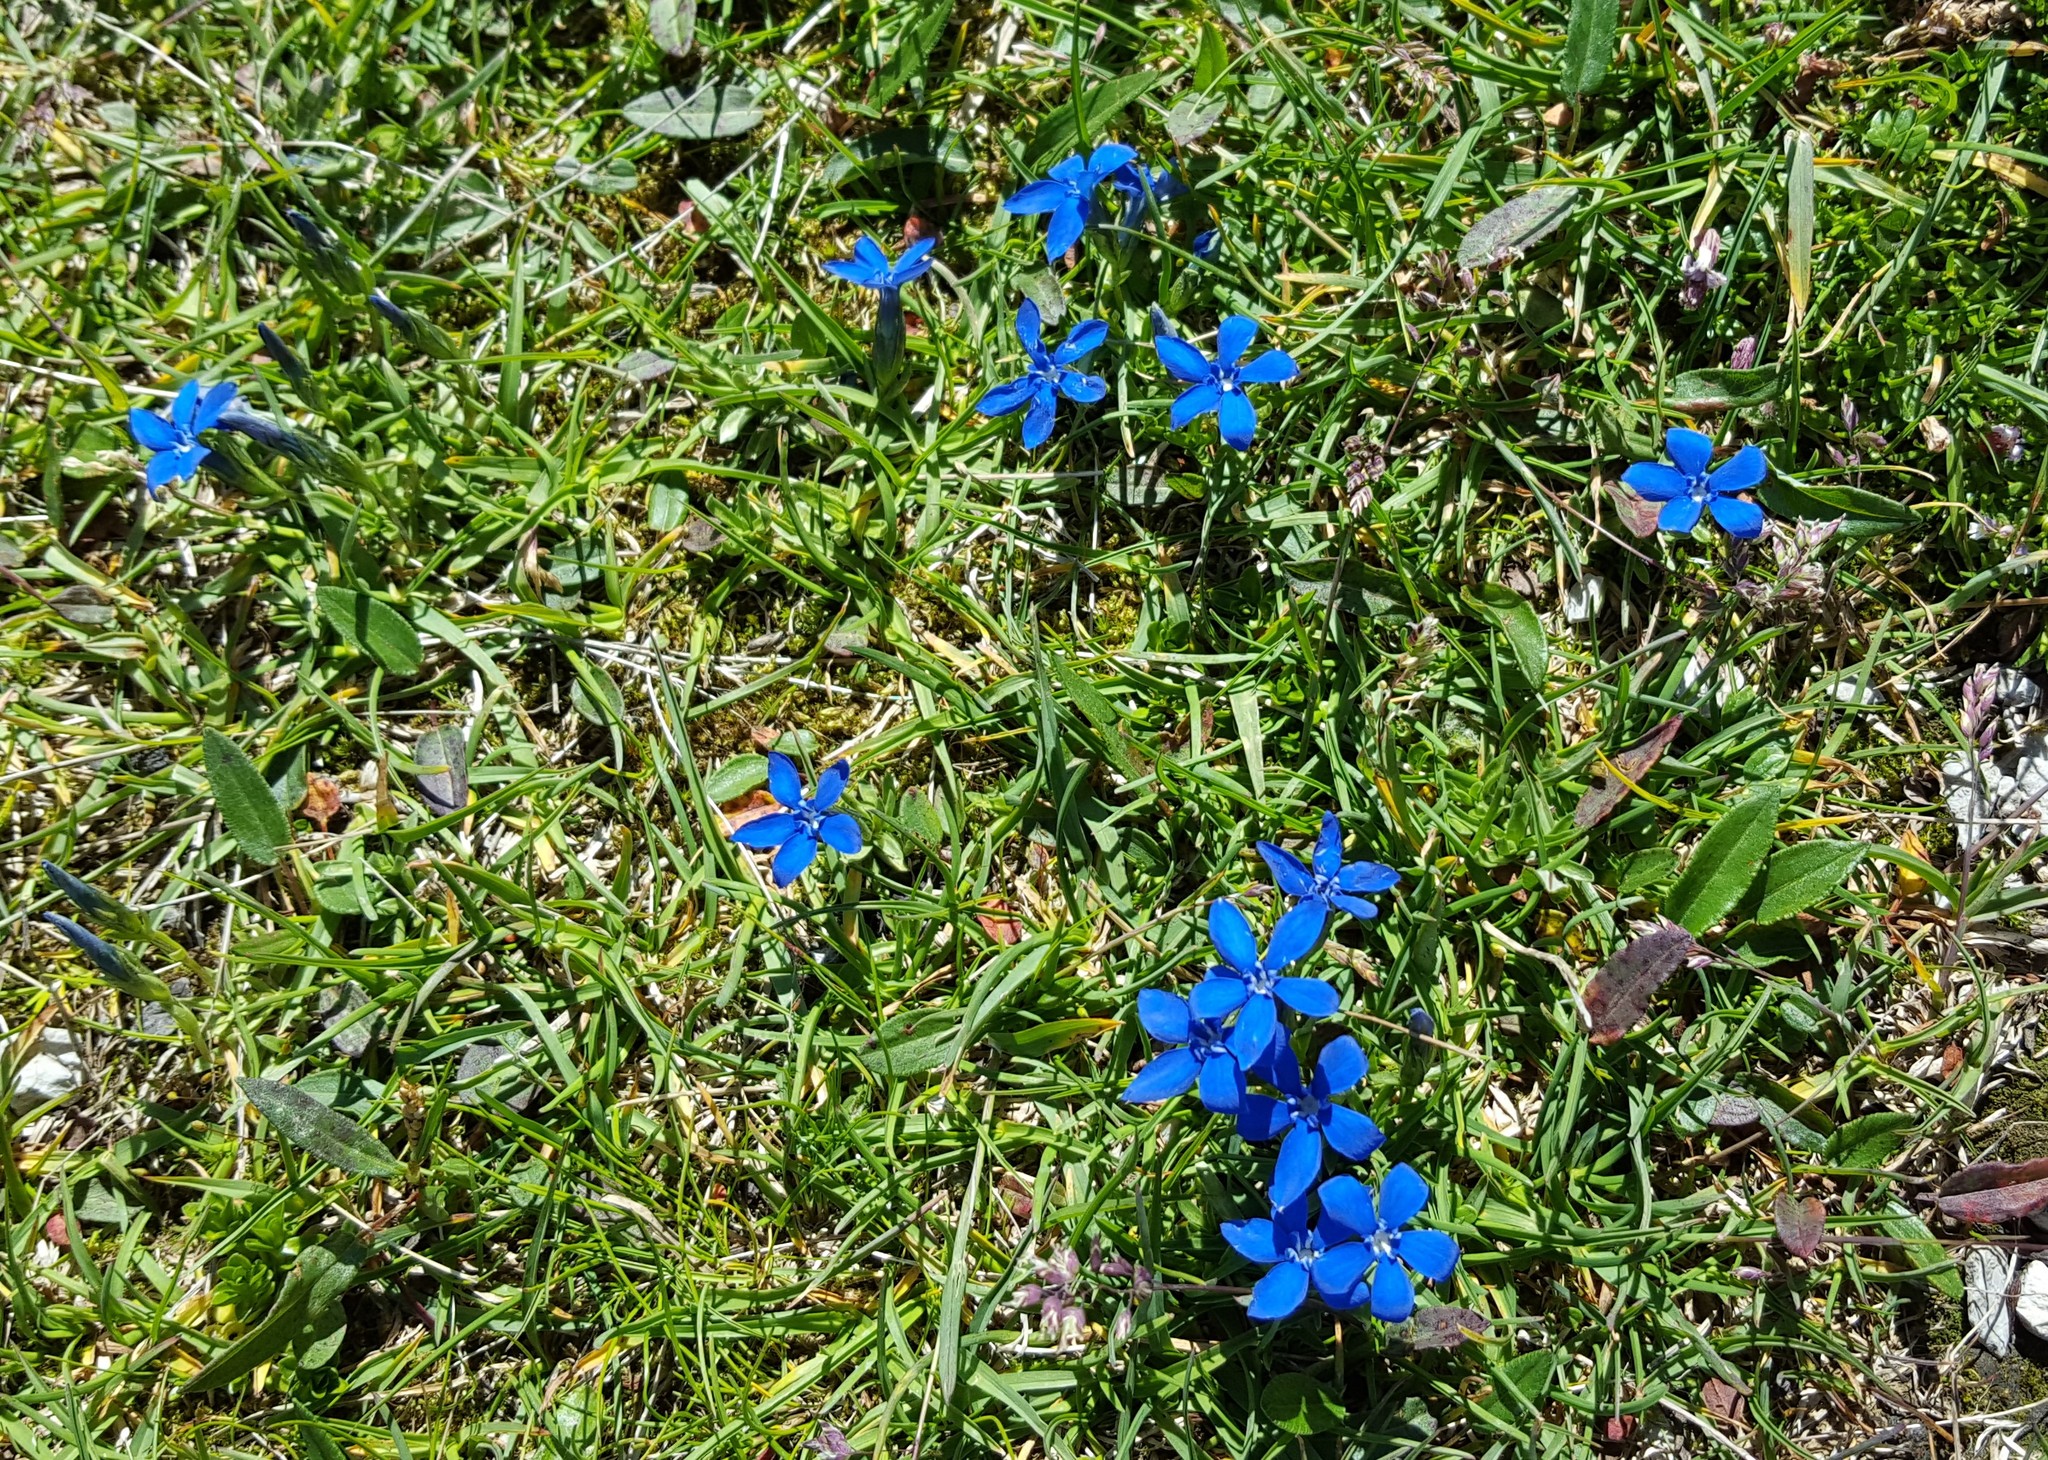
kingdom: Plantae
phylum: Tracheophyta
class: Magnoliopsida
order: Gentianales
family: Gentianaceae
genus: Gentiana
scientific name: Gentiana pumila
